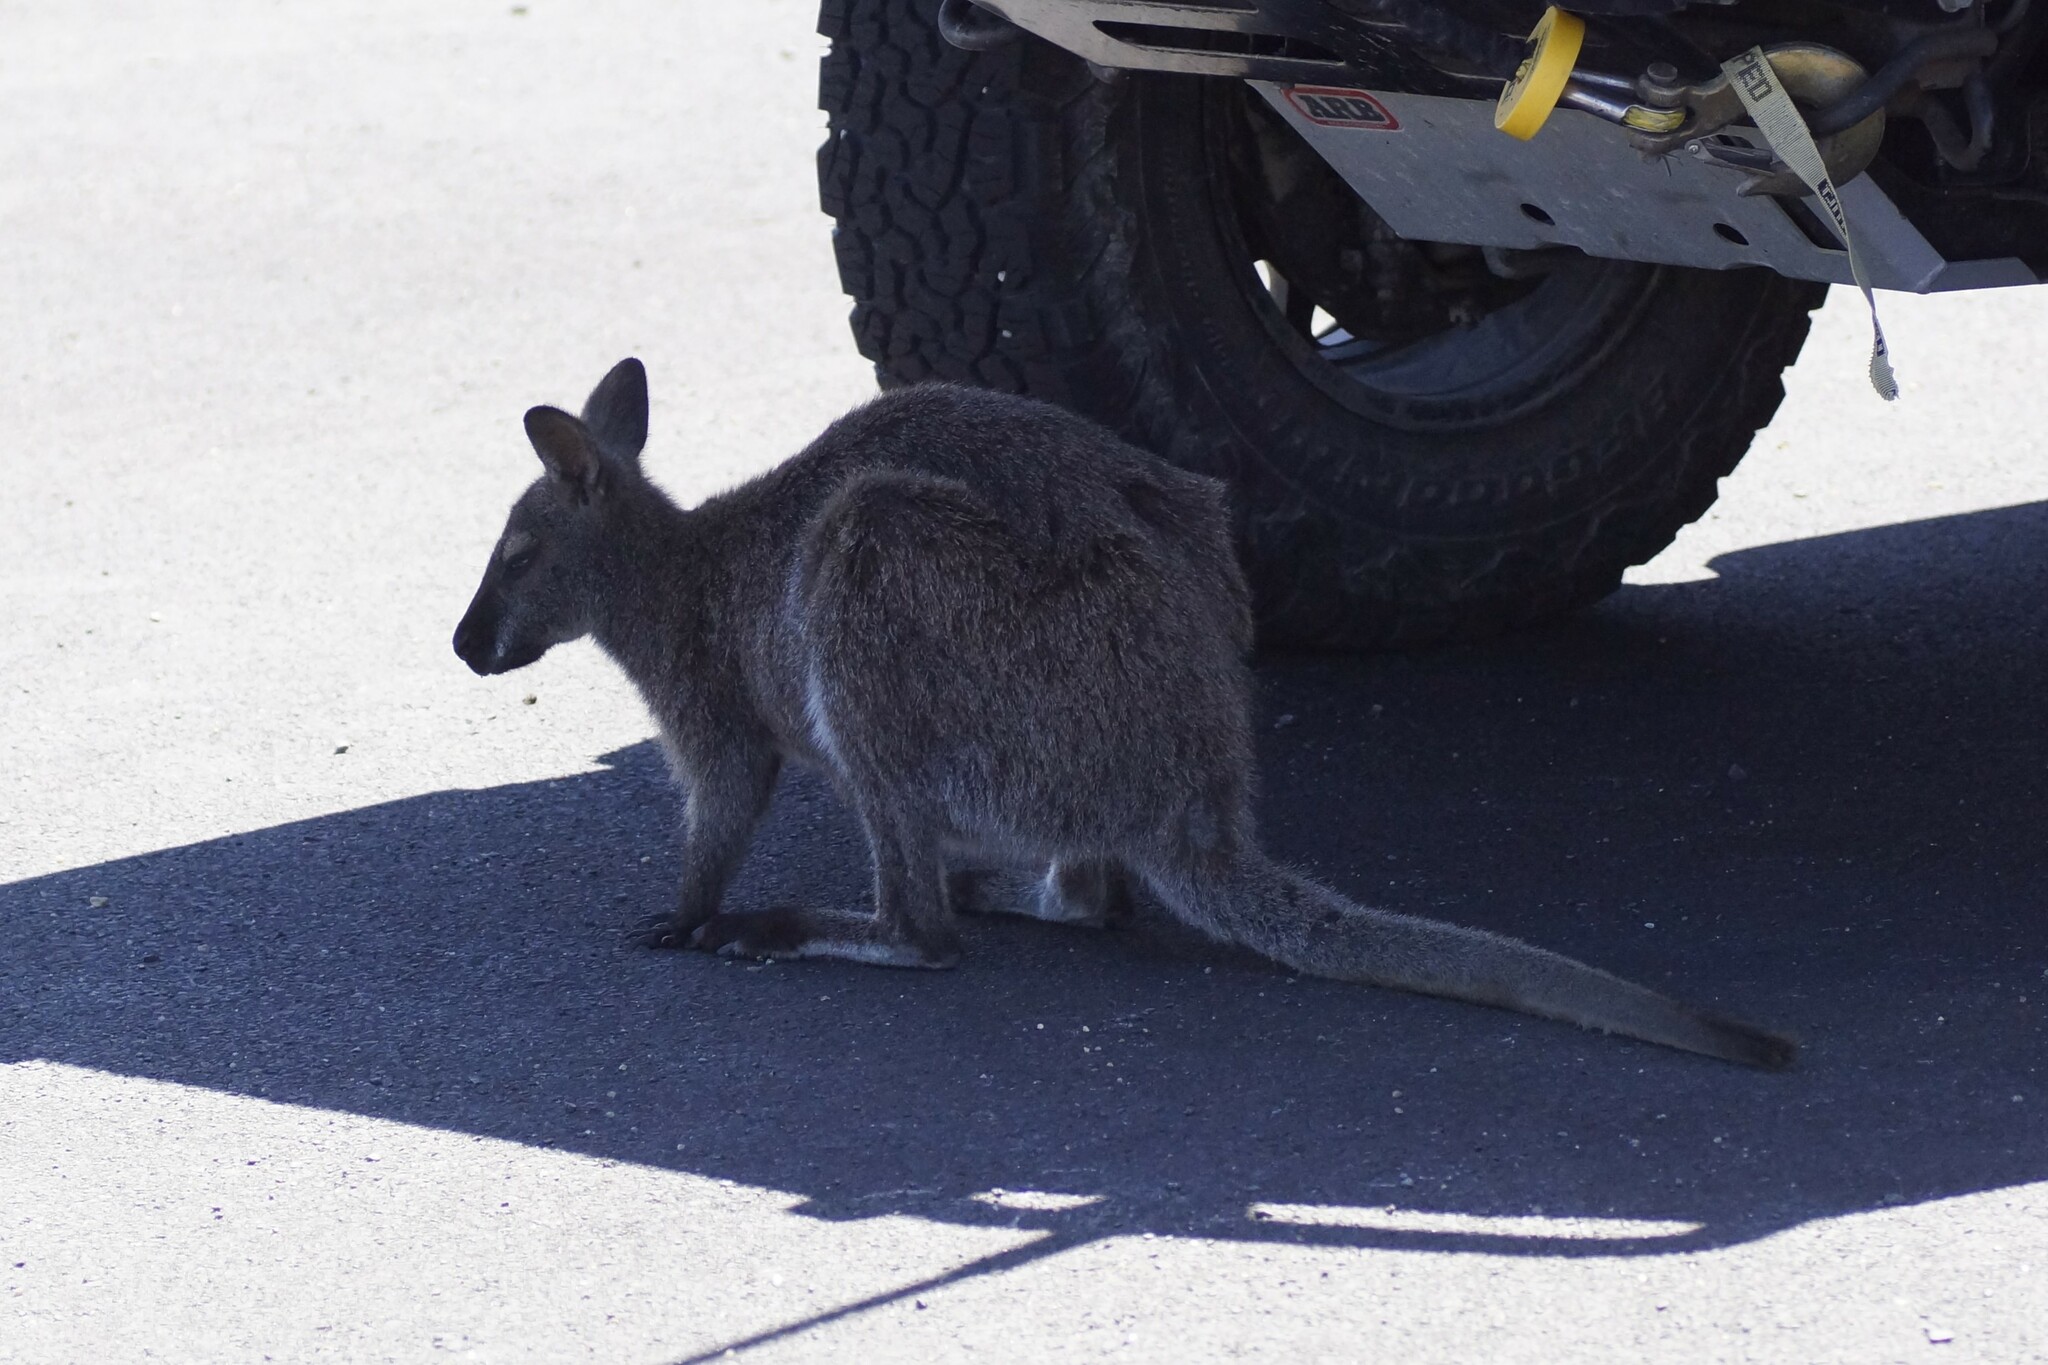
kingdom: Animalia
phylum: Chordata
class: Mammalia
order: Diprotodontia
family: Macropodidae
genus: Notamacropus
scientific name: Notamacropus rufogriseus
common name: Red-necked wallaby
